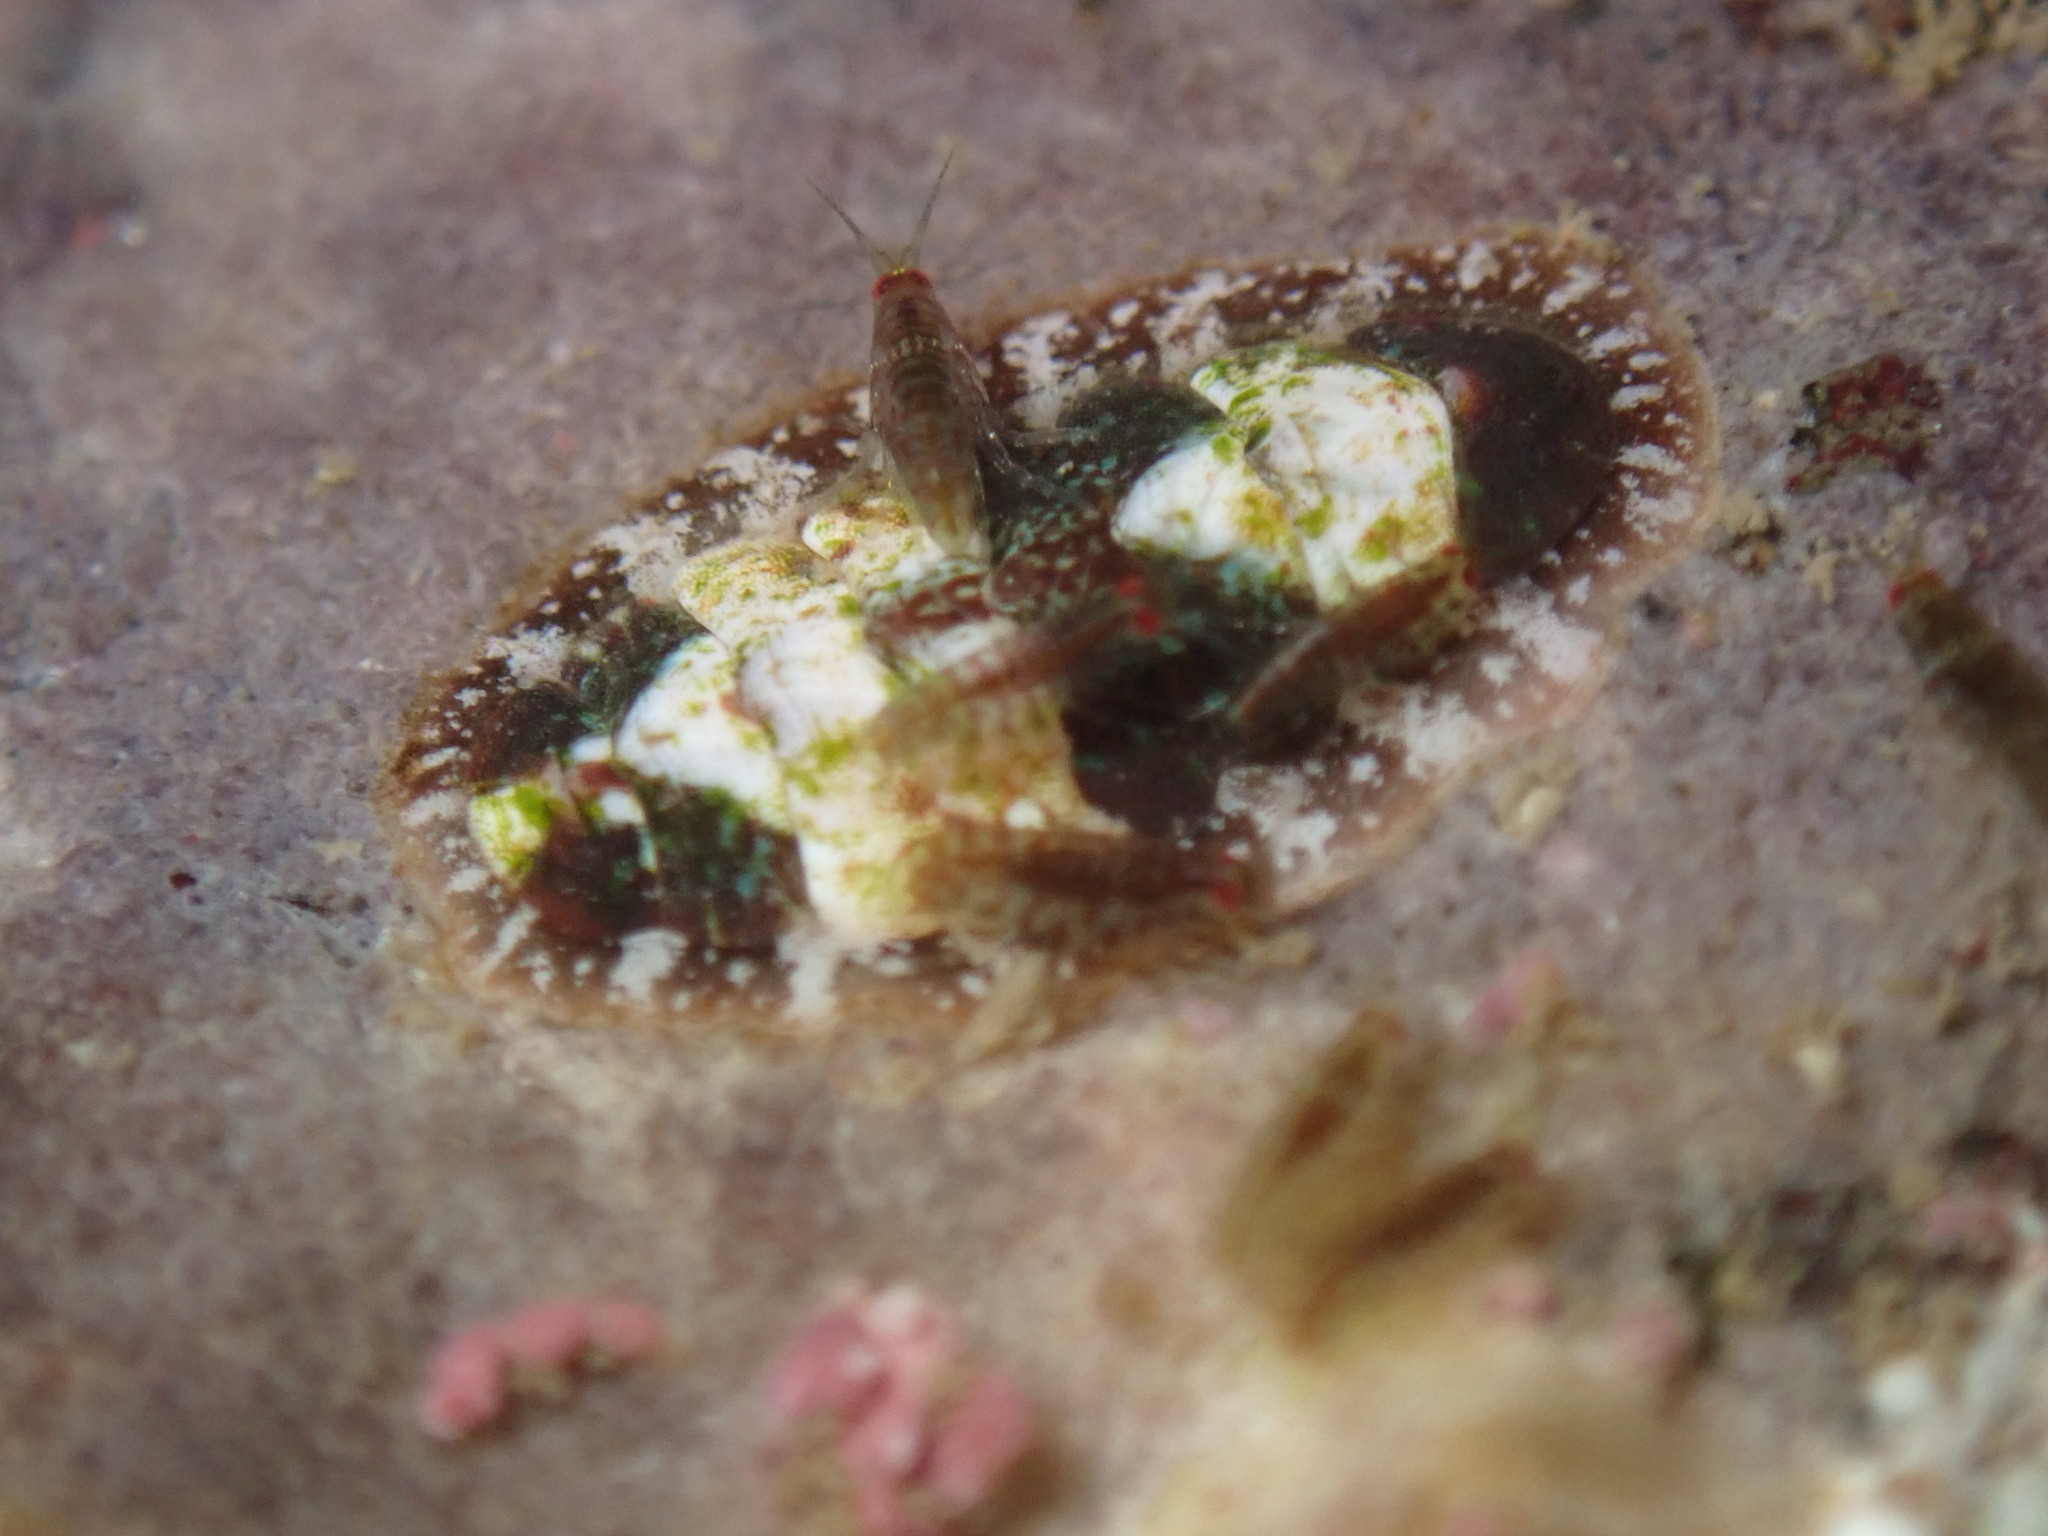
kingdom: Animalia
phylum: Mollusca
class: Polyplacophora
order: Chitonida
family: Tonicellidae
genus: Cyanoplax
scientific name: Cyanoplax dentiens
